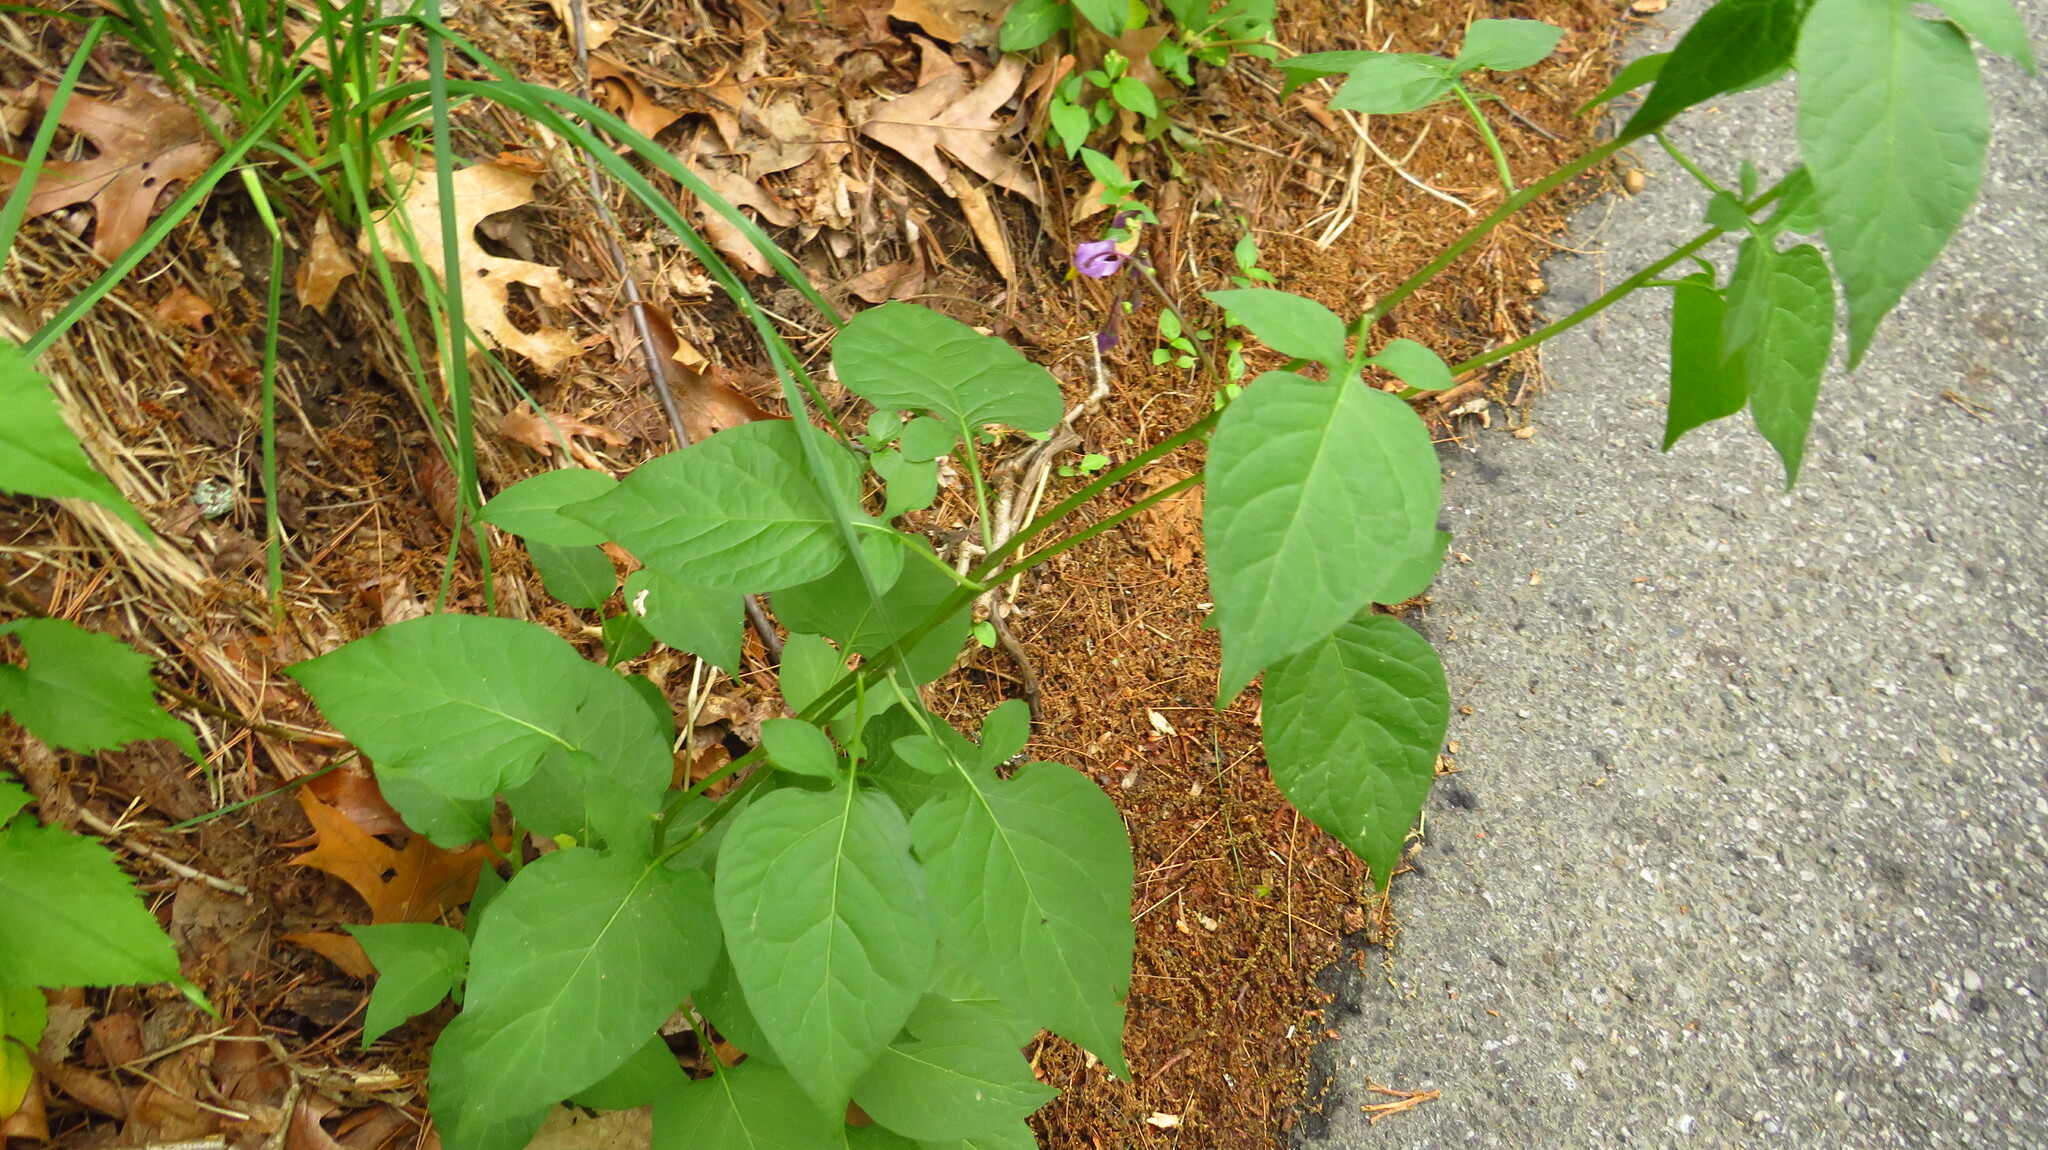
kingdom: Plantae
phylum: Tracheophyta
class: Magnoliopsida
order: Solanales
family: Solanaceae
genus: Solanum
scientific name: Solanum dulcamara
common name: Climbing nightshade
